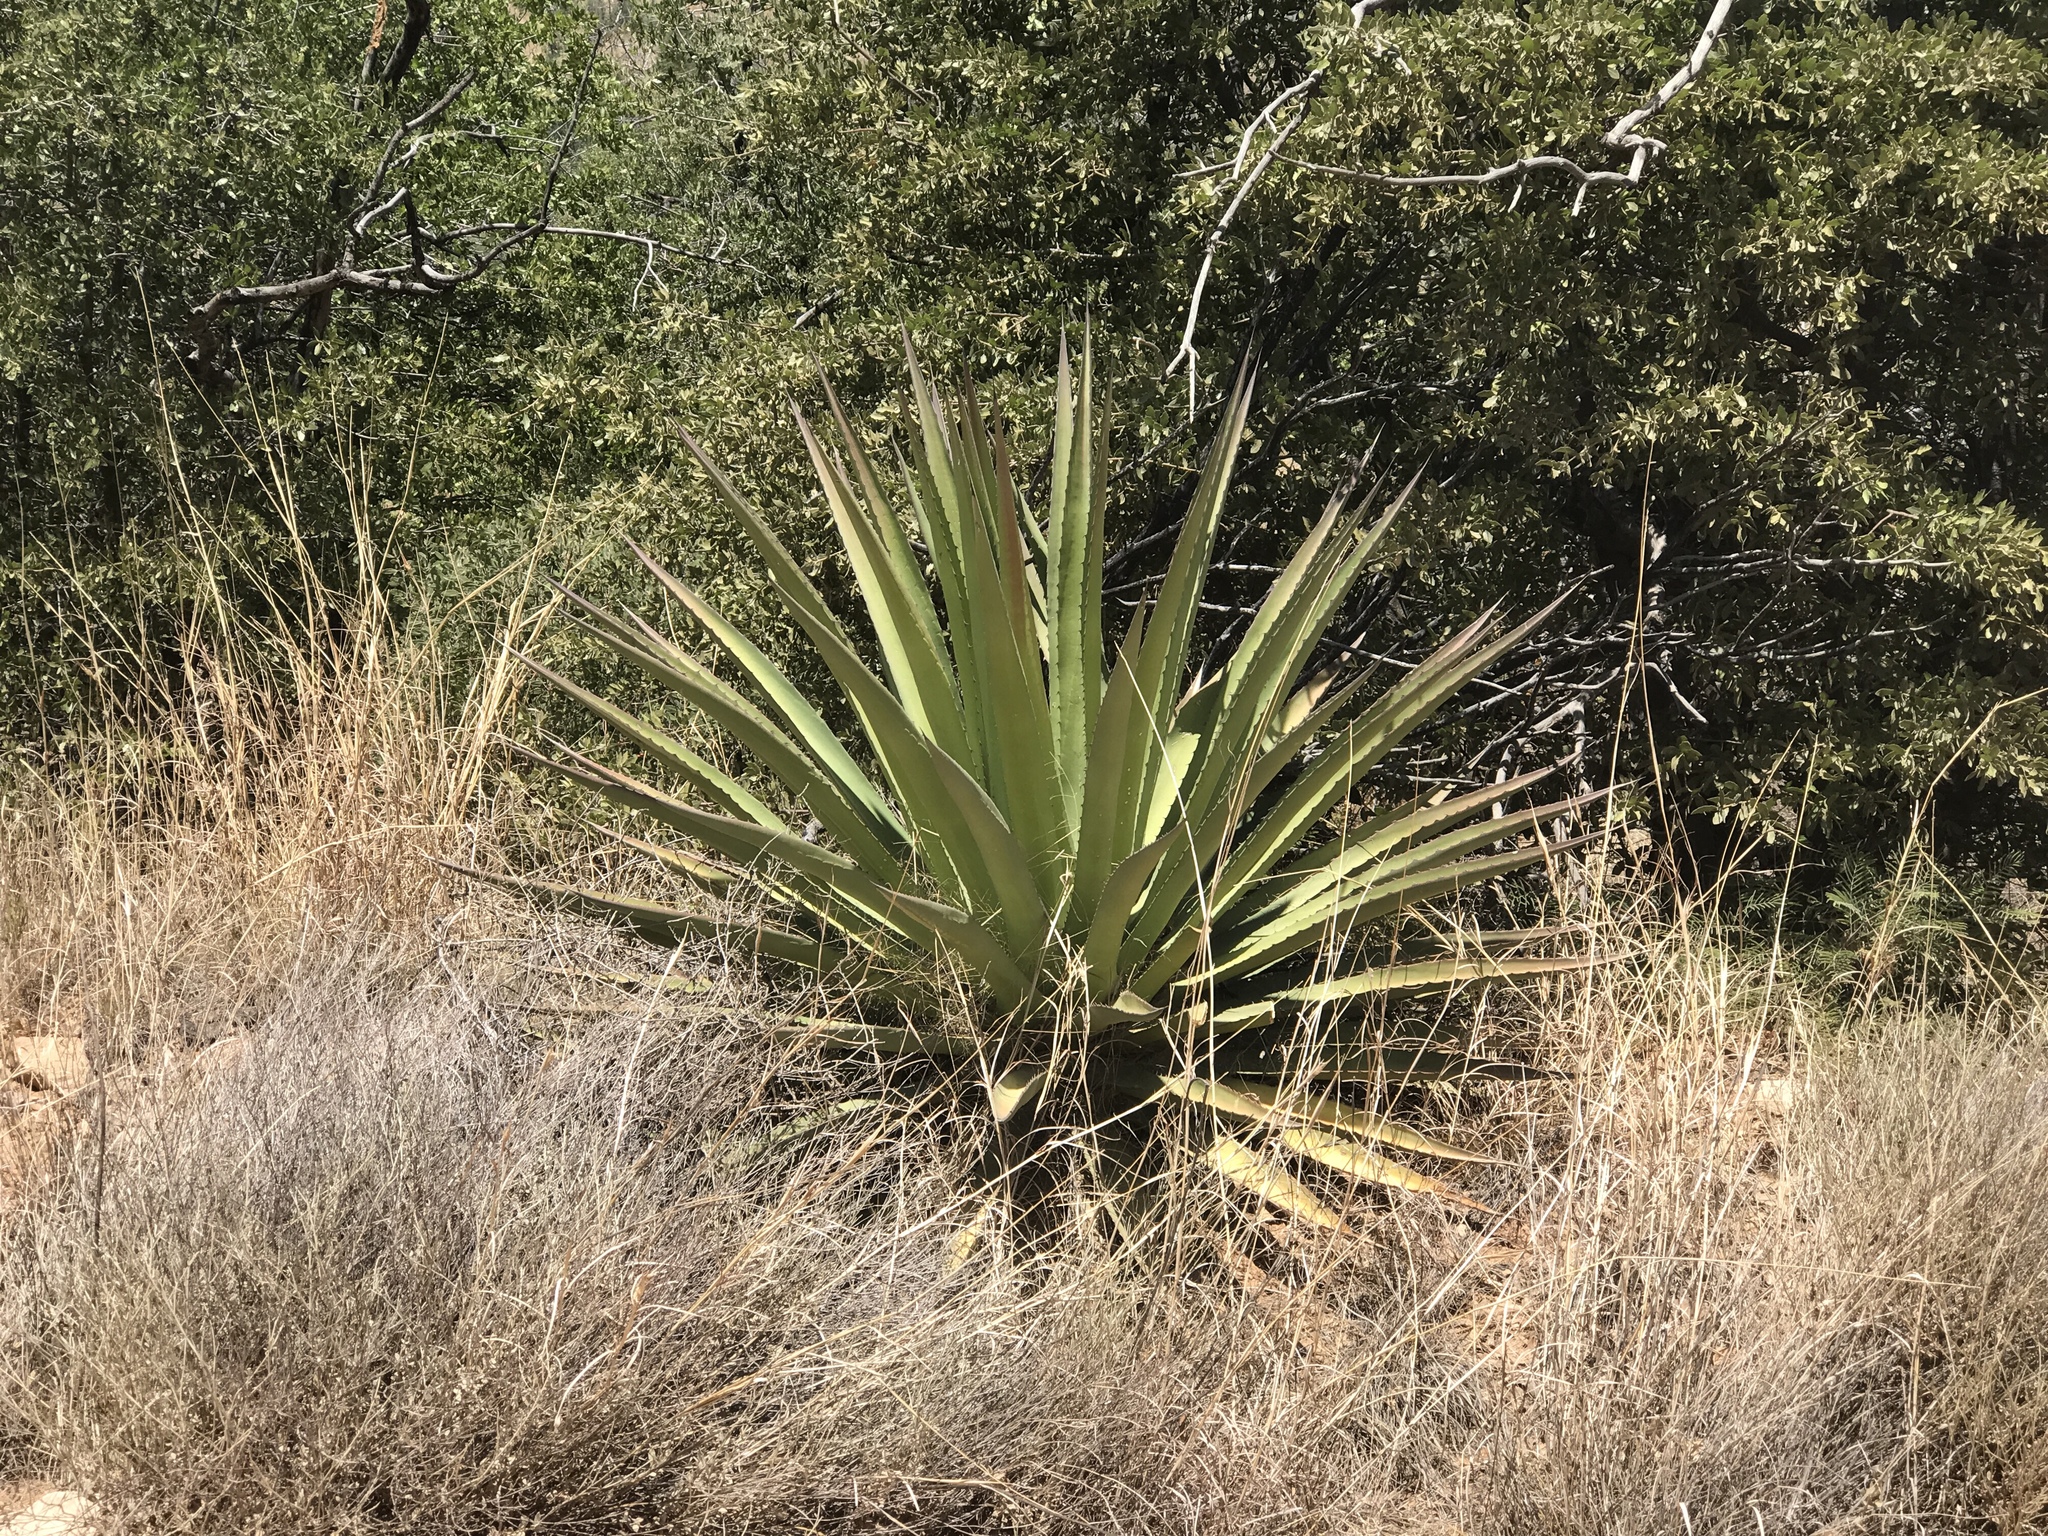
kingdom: Plantae
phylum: Tracheophyta
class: Liliopsida
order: Asparagales
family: Asparagaceae
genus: Agave
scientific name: Agave palmeri
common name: Palmer agave
